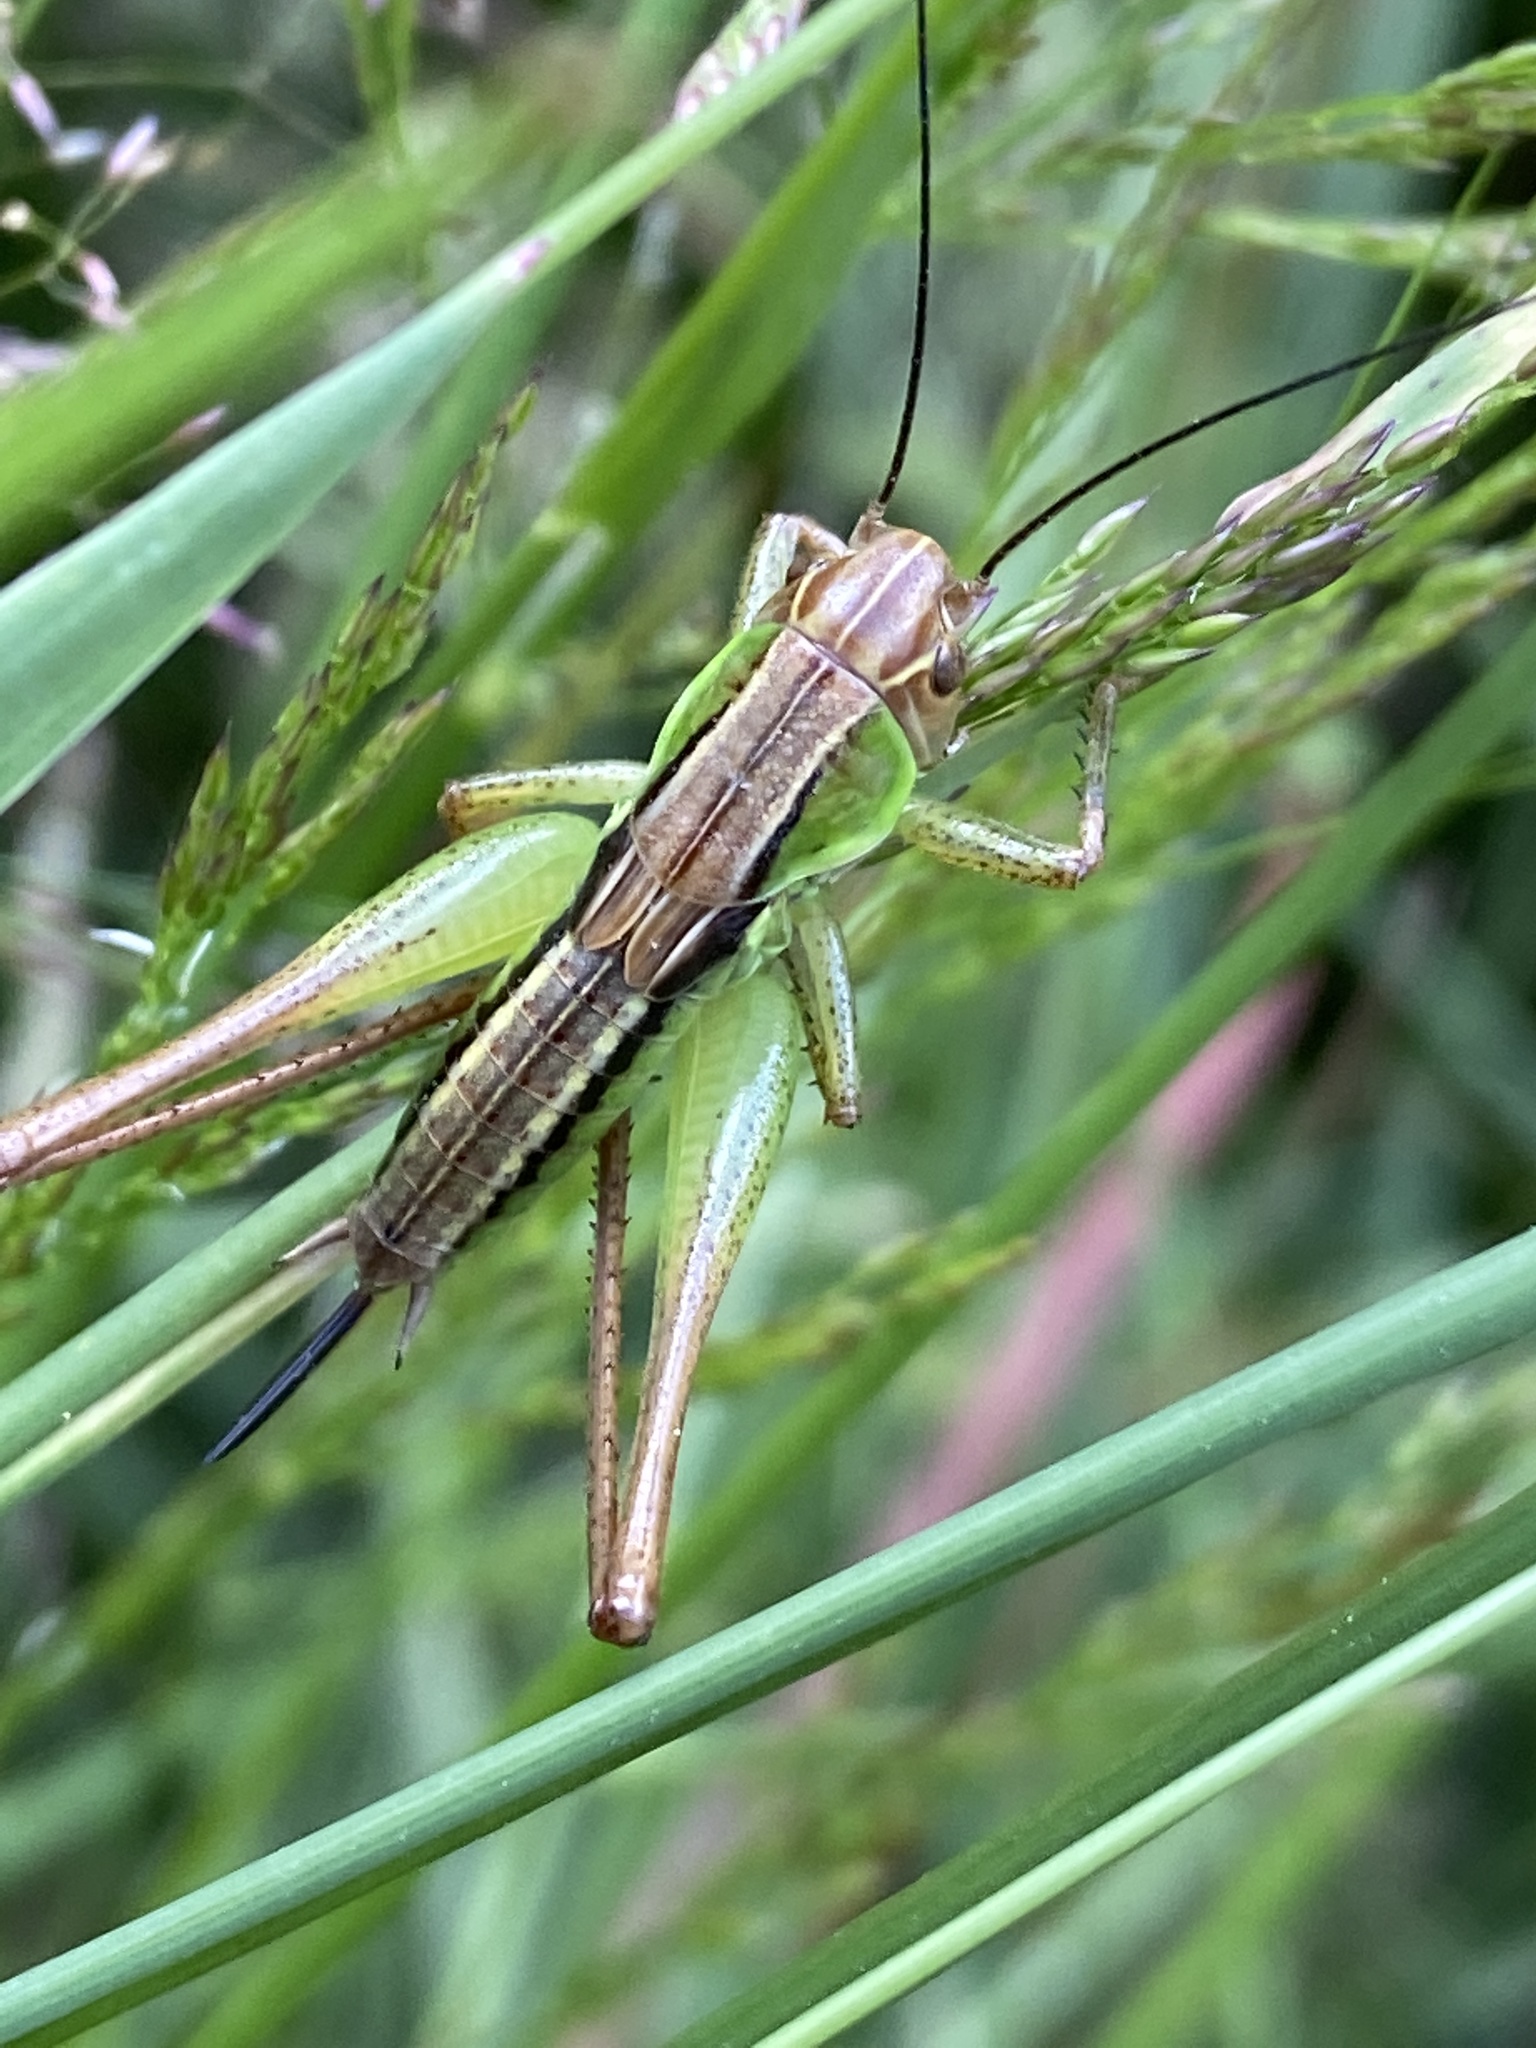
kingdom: Animalia
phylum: Arthropoda
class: Insecta
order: Orthoptera
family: Tettigoniidae
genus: Roeseliana
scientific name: Roeseliana roeselii
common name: Roesel's bush cricket
